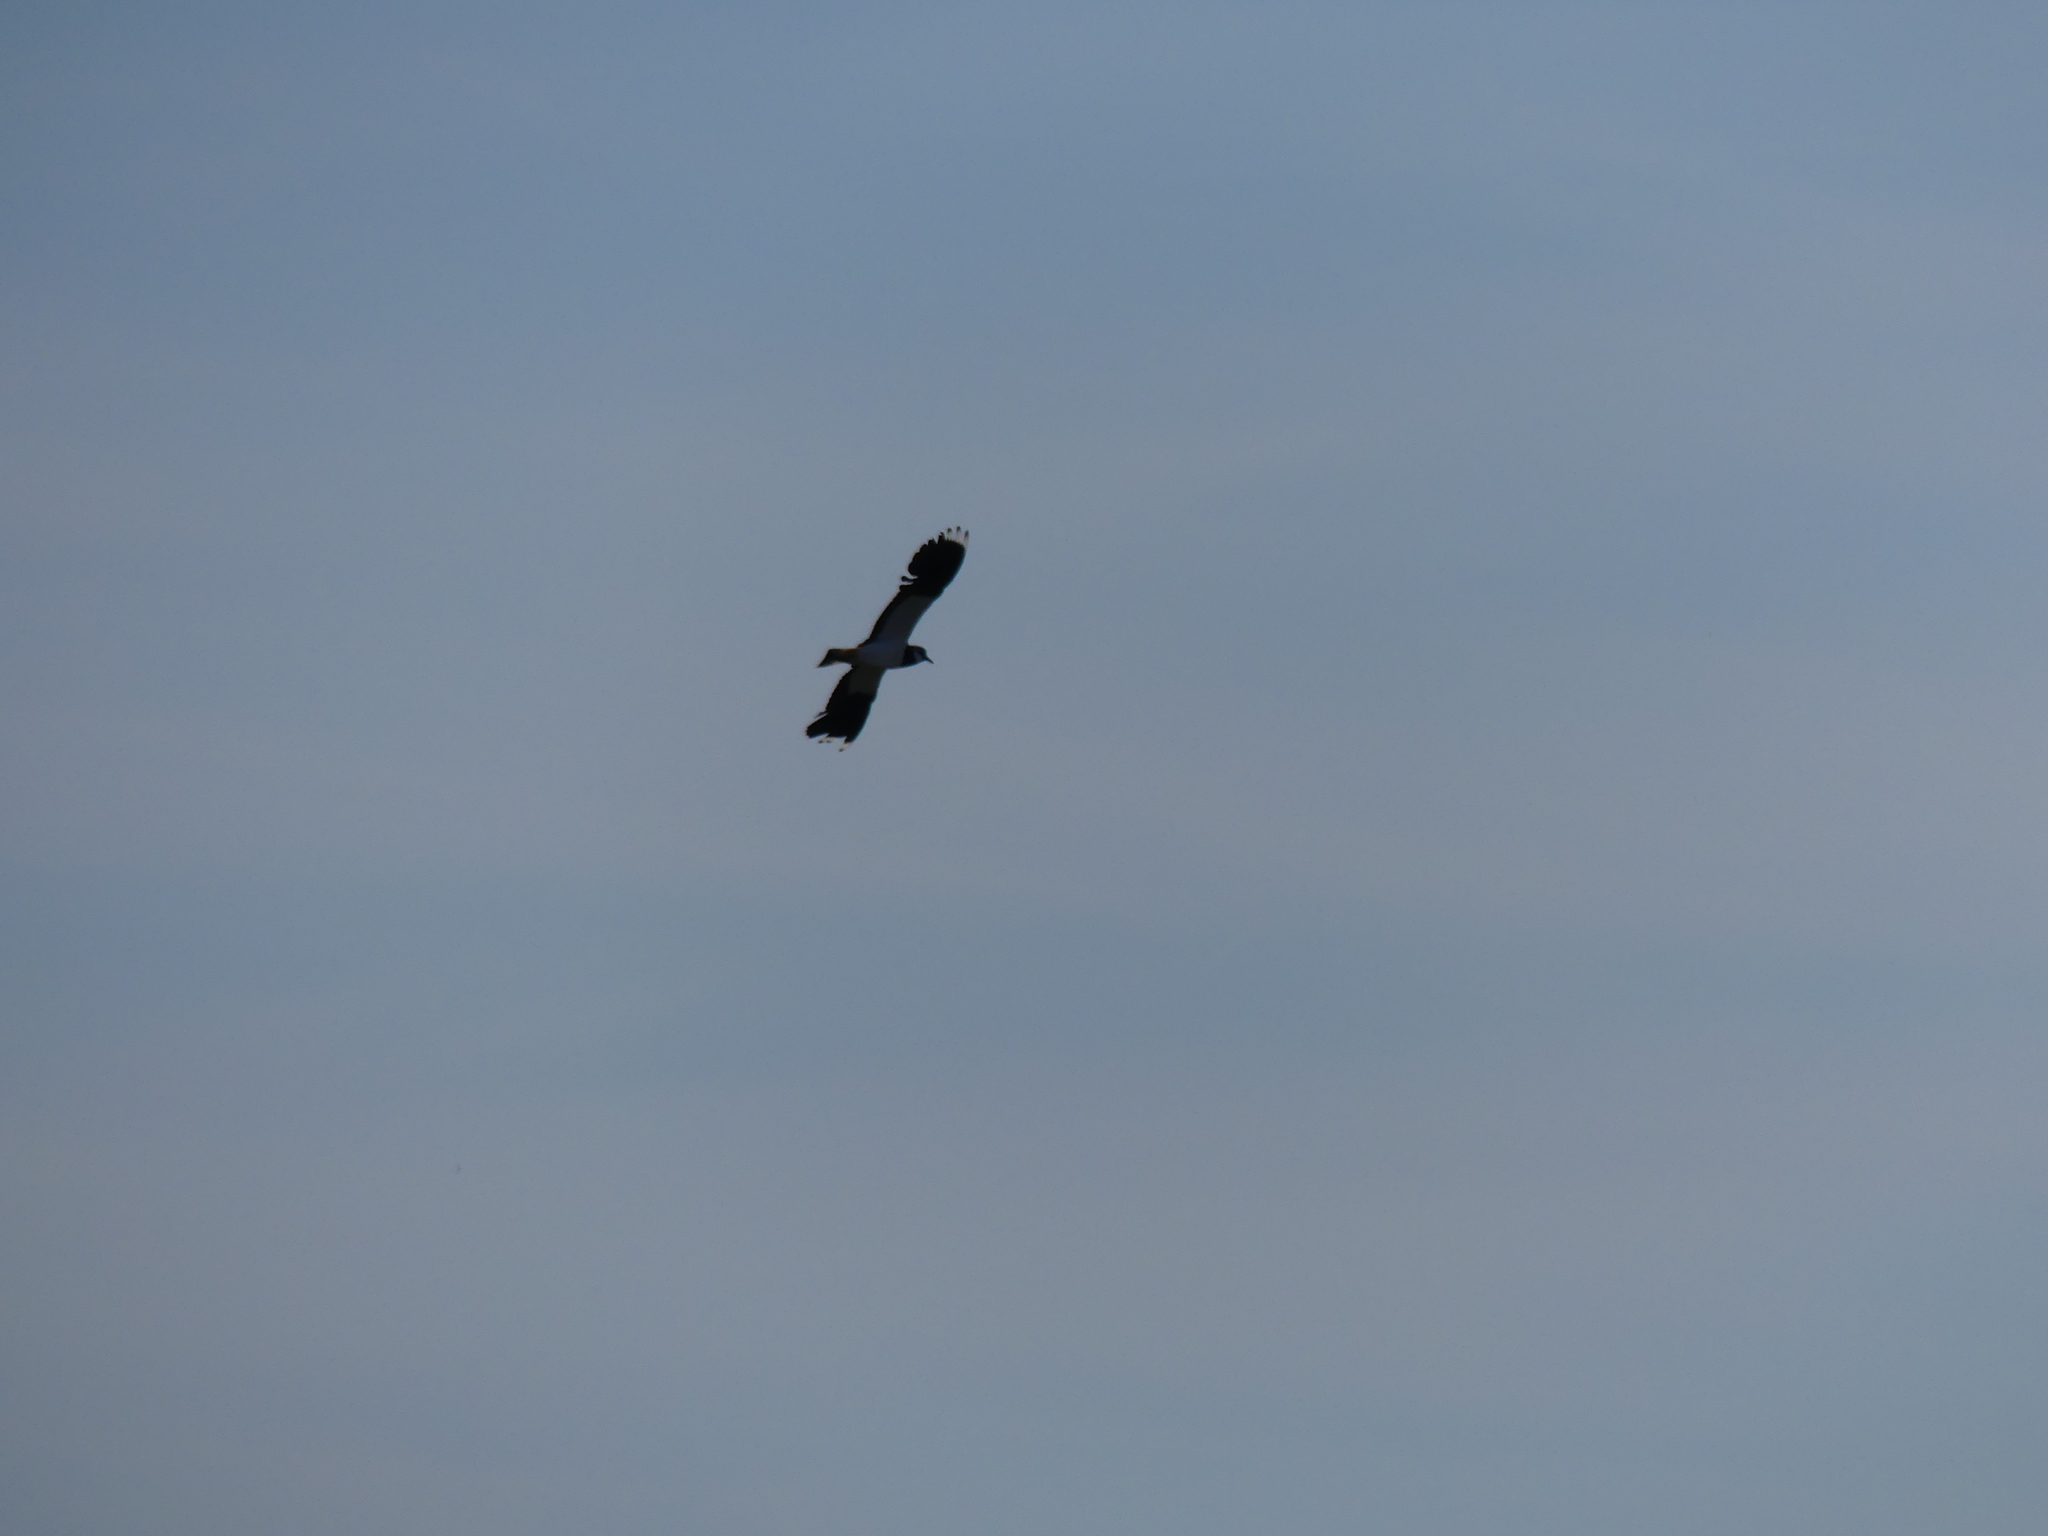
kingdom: Animalia
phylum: Chordata
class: Aves
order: Charadriiformes
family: Charadriidae
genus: Vanellus
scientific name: Vanellus vanellus
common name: Northern lapwing
